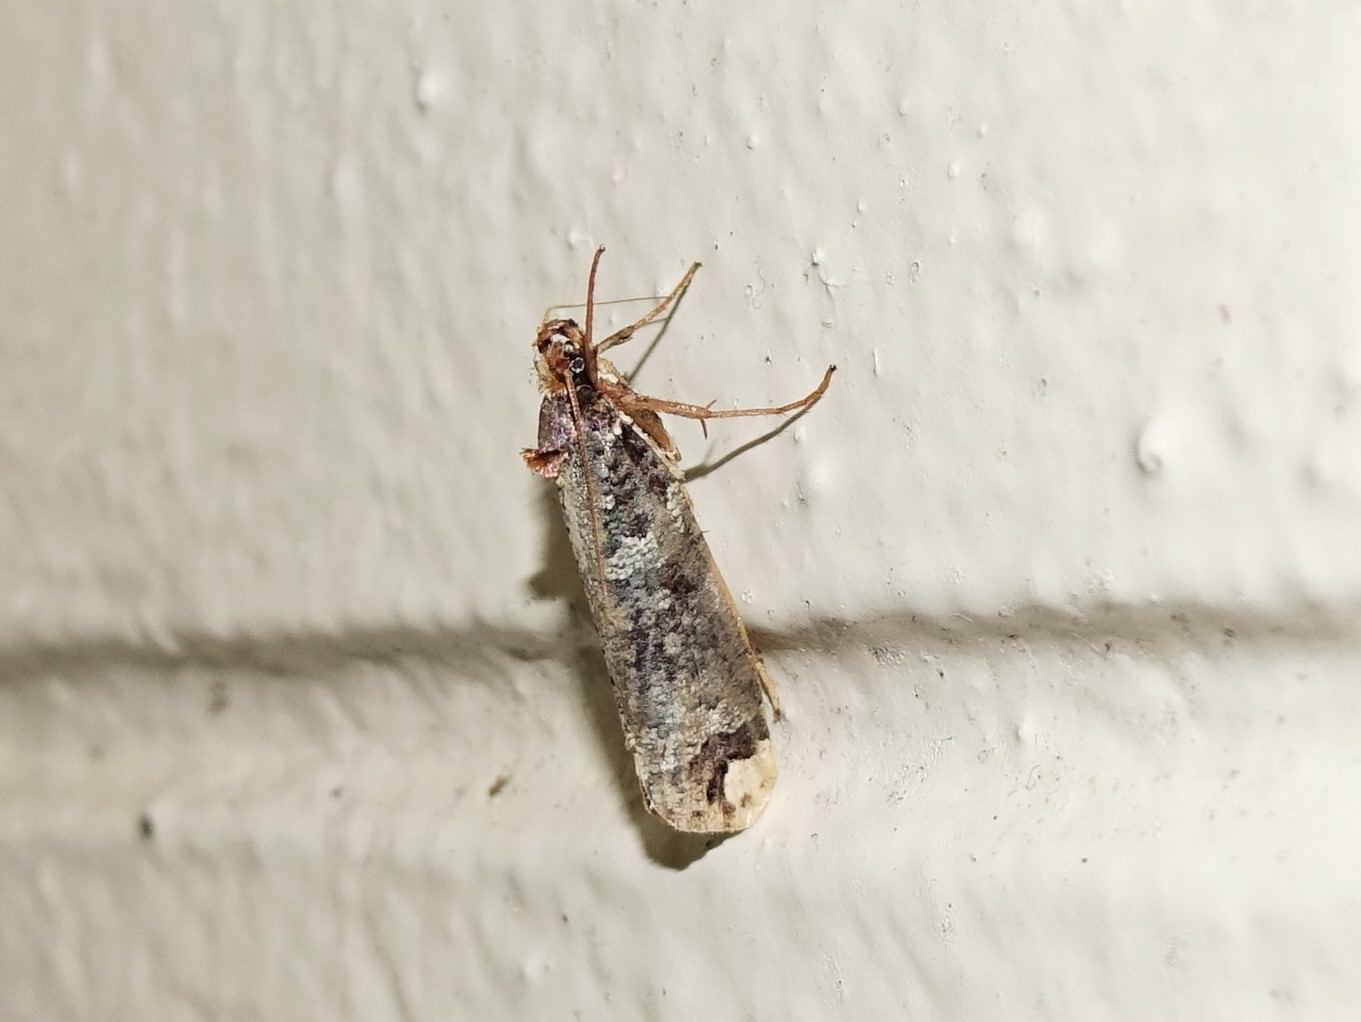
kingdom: Animalia
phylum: Arthropoda
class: Insecta
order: Lepidoptera
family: Plutellidae
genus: Proditrix
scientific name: Proditrix tetragona
